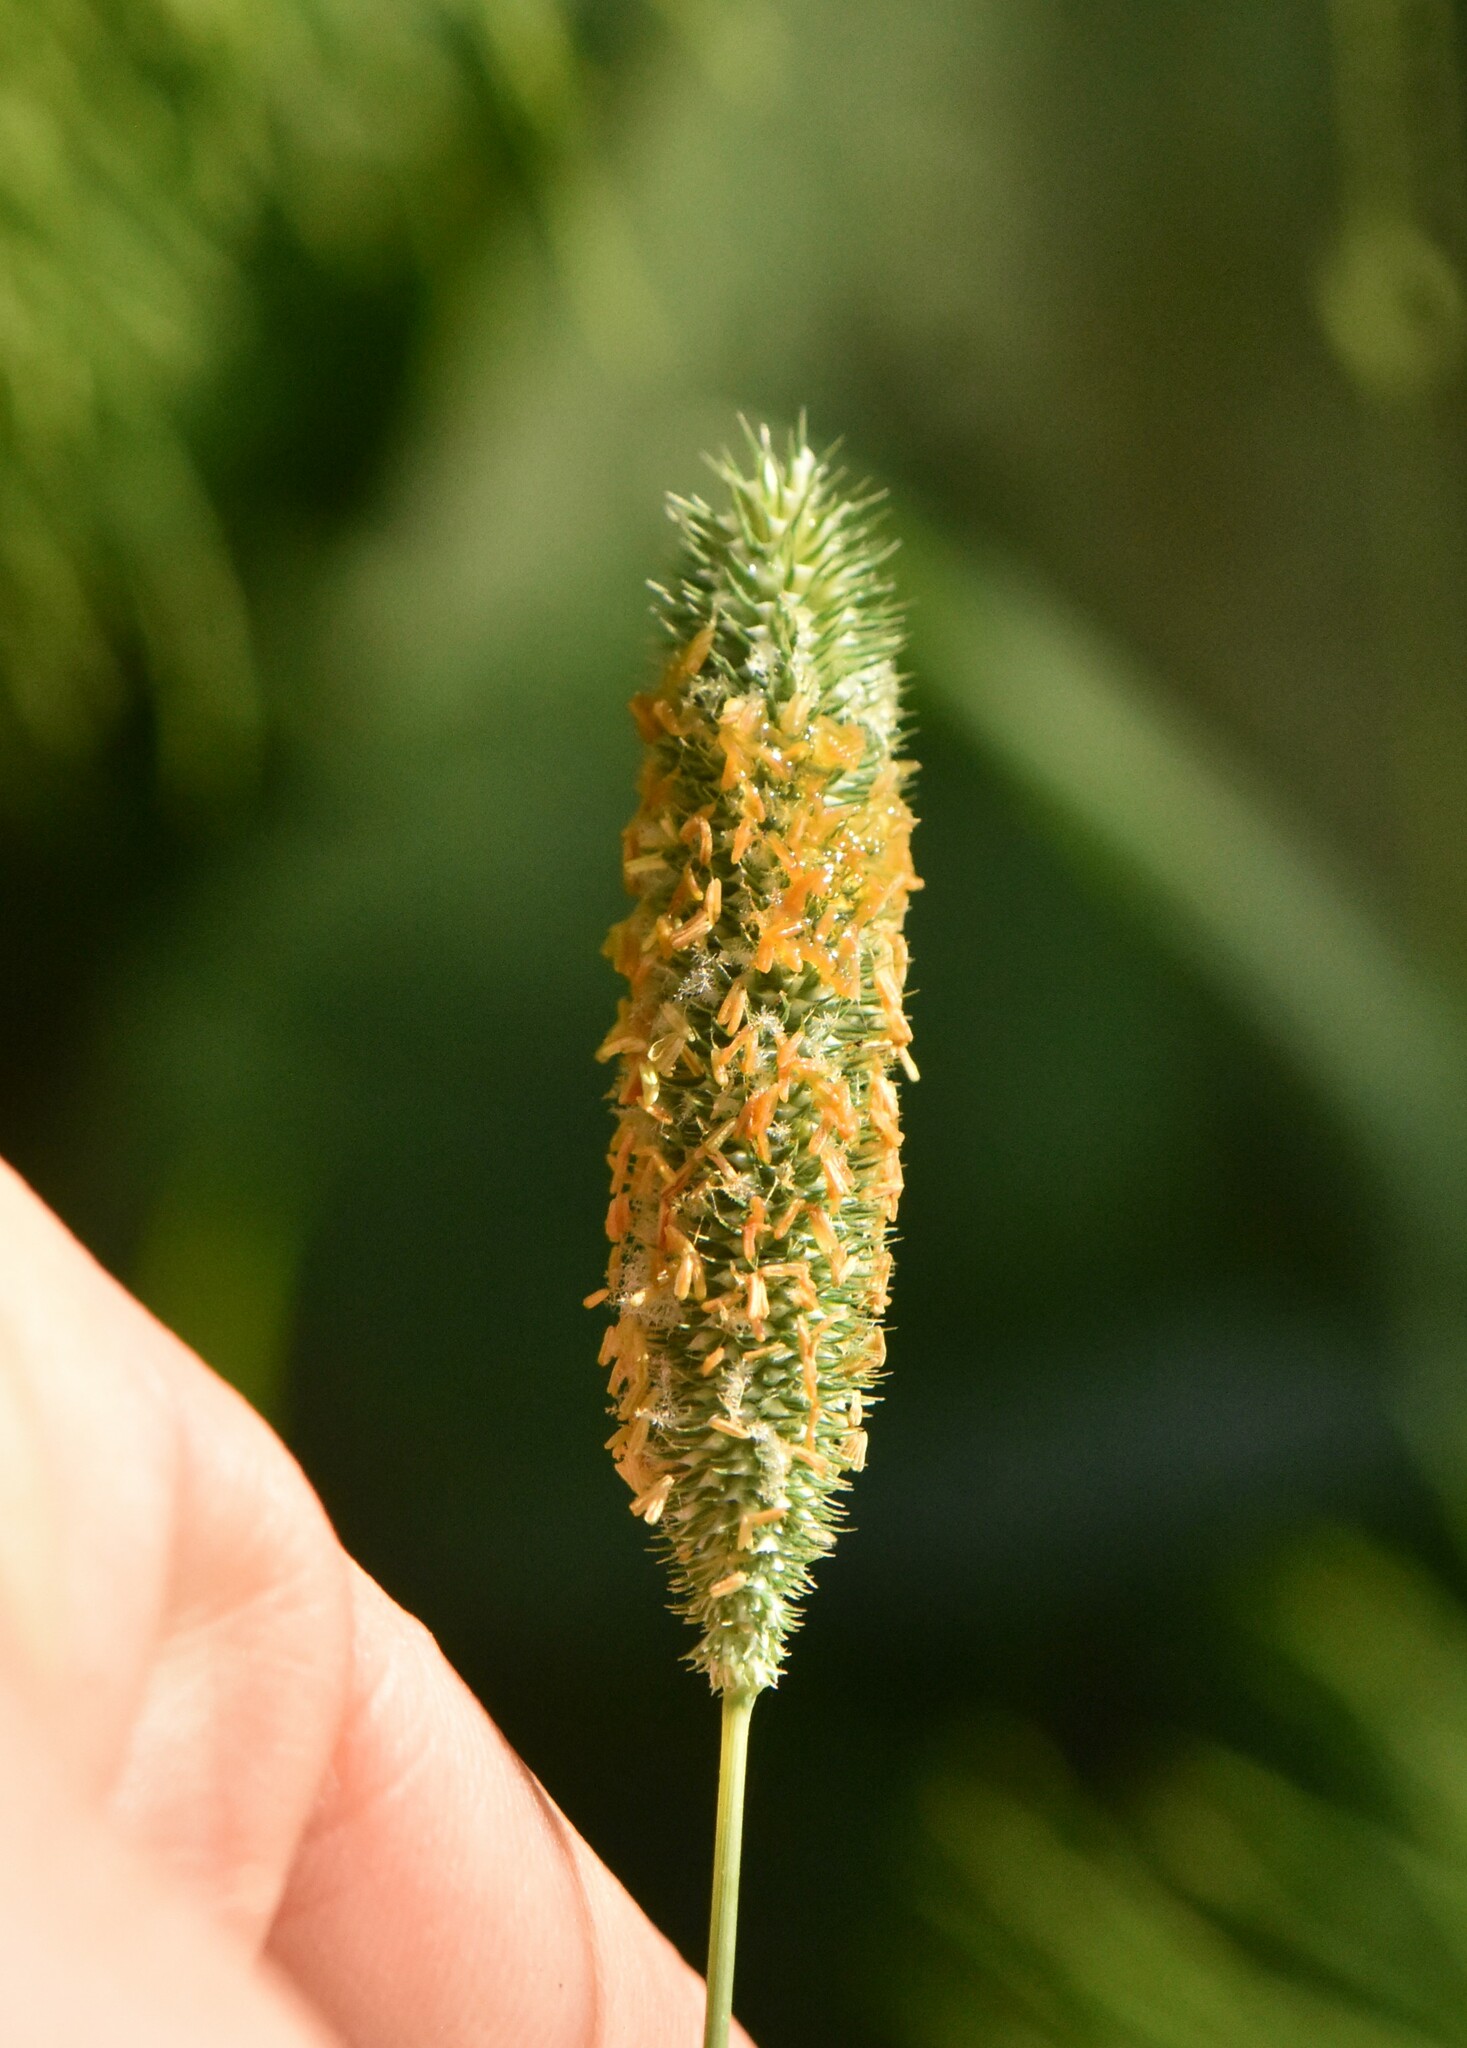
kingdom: Plantae
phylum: Tracheophyta
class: Liliopsida
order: Poales
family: Poaceae
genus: Phleum
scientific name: Phleum pratense
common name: Timothy grass
